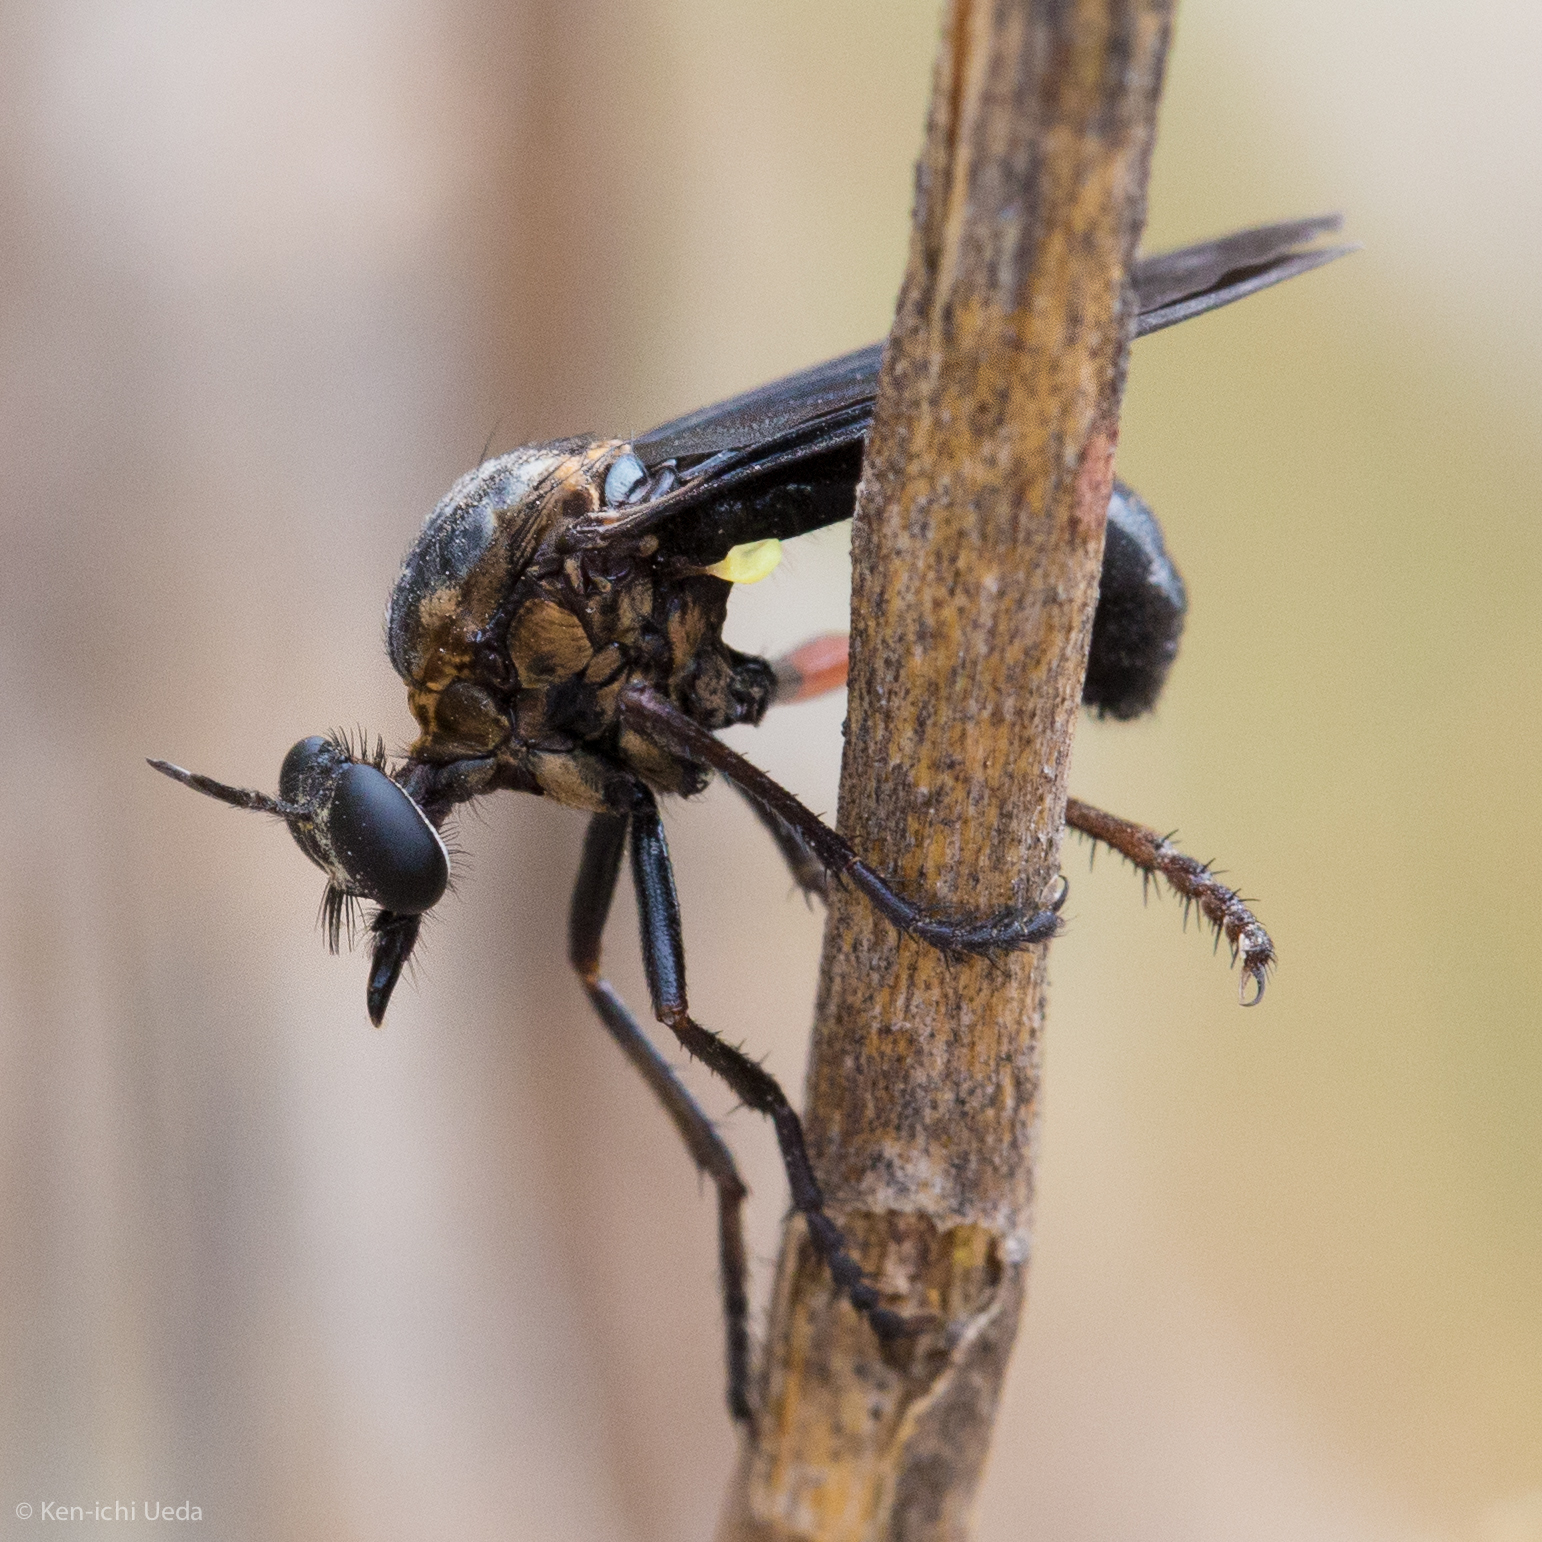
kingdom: Animalia
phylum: Arthropoda
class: Insecta
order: Diptera
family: Asilidae
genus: Saropogon
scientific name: Saropogon purus
